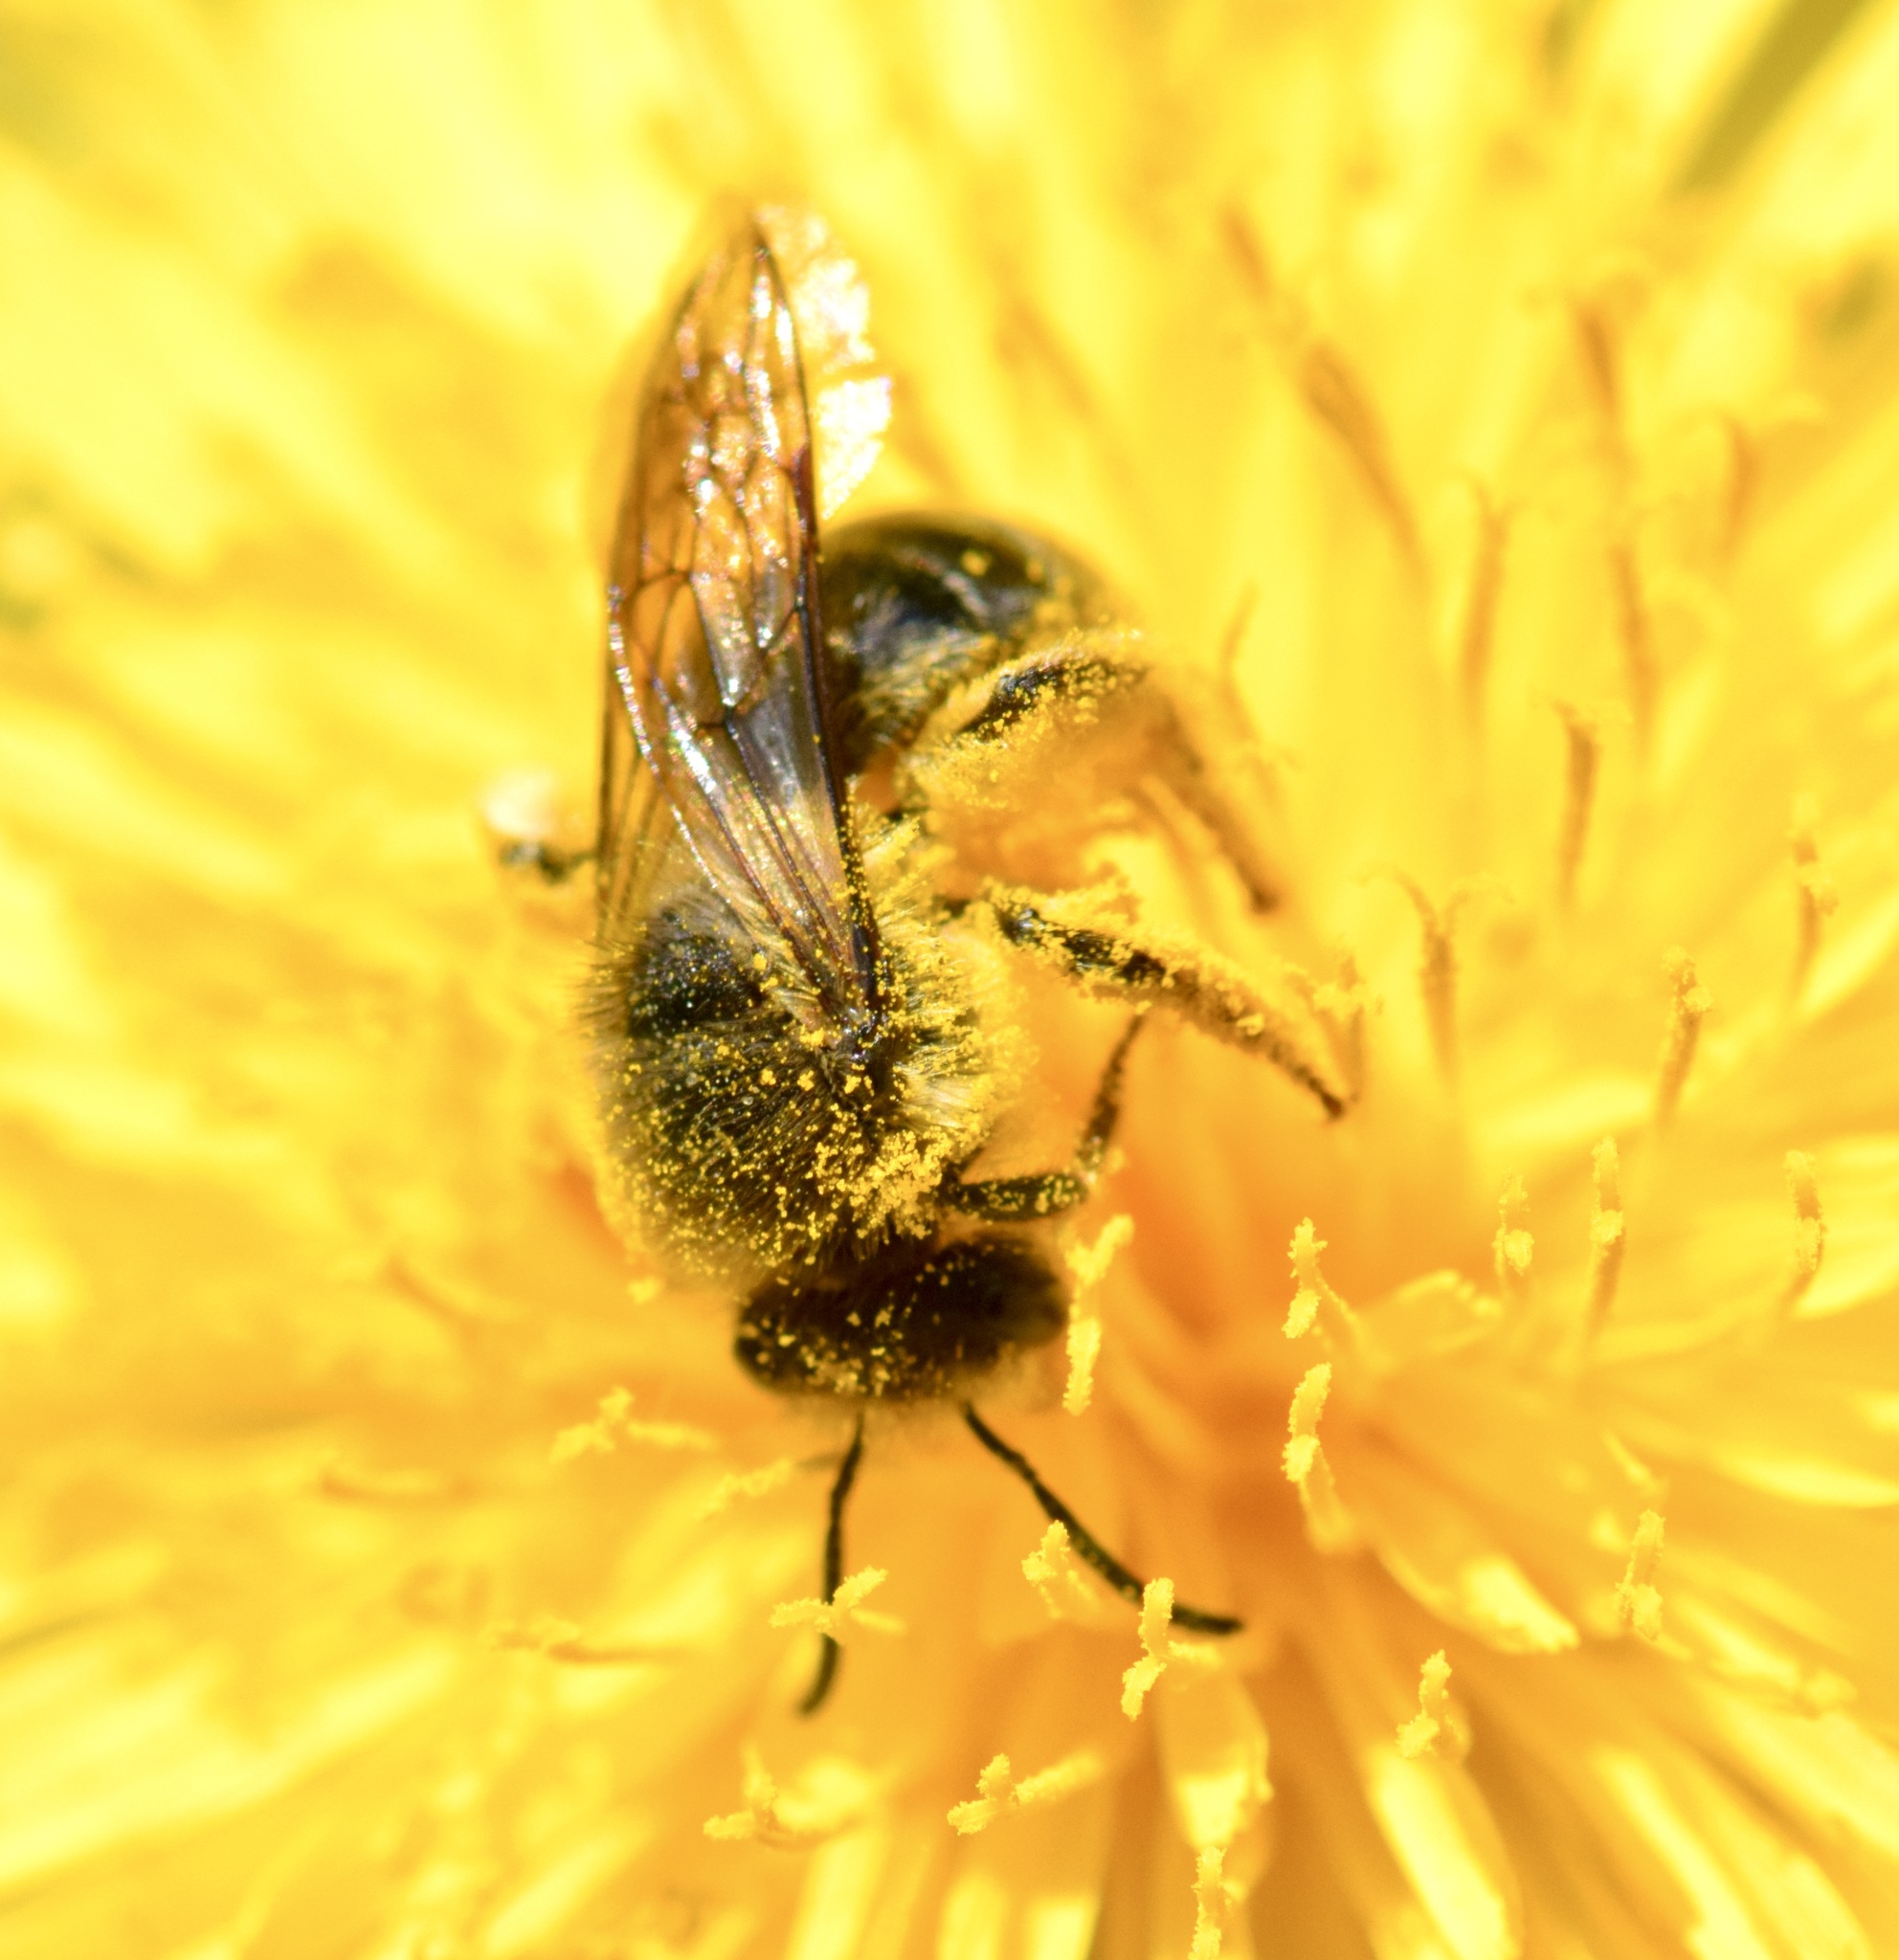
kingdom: Animalia
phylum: Arthropoda
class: Insecta
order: Hymenoptera
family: Colletidae
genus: Colletes
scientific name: Colletes inaequalis
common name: Unequal cellophane bee
